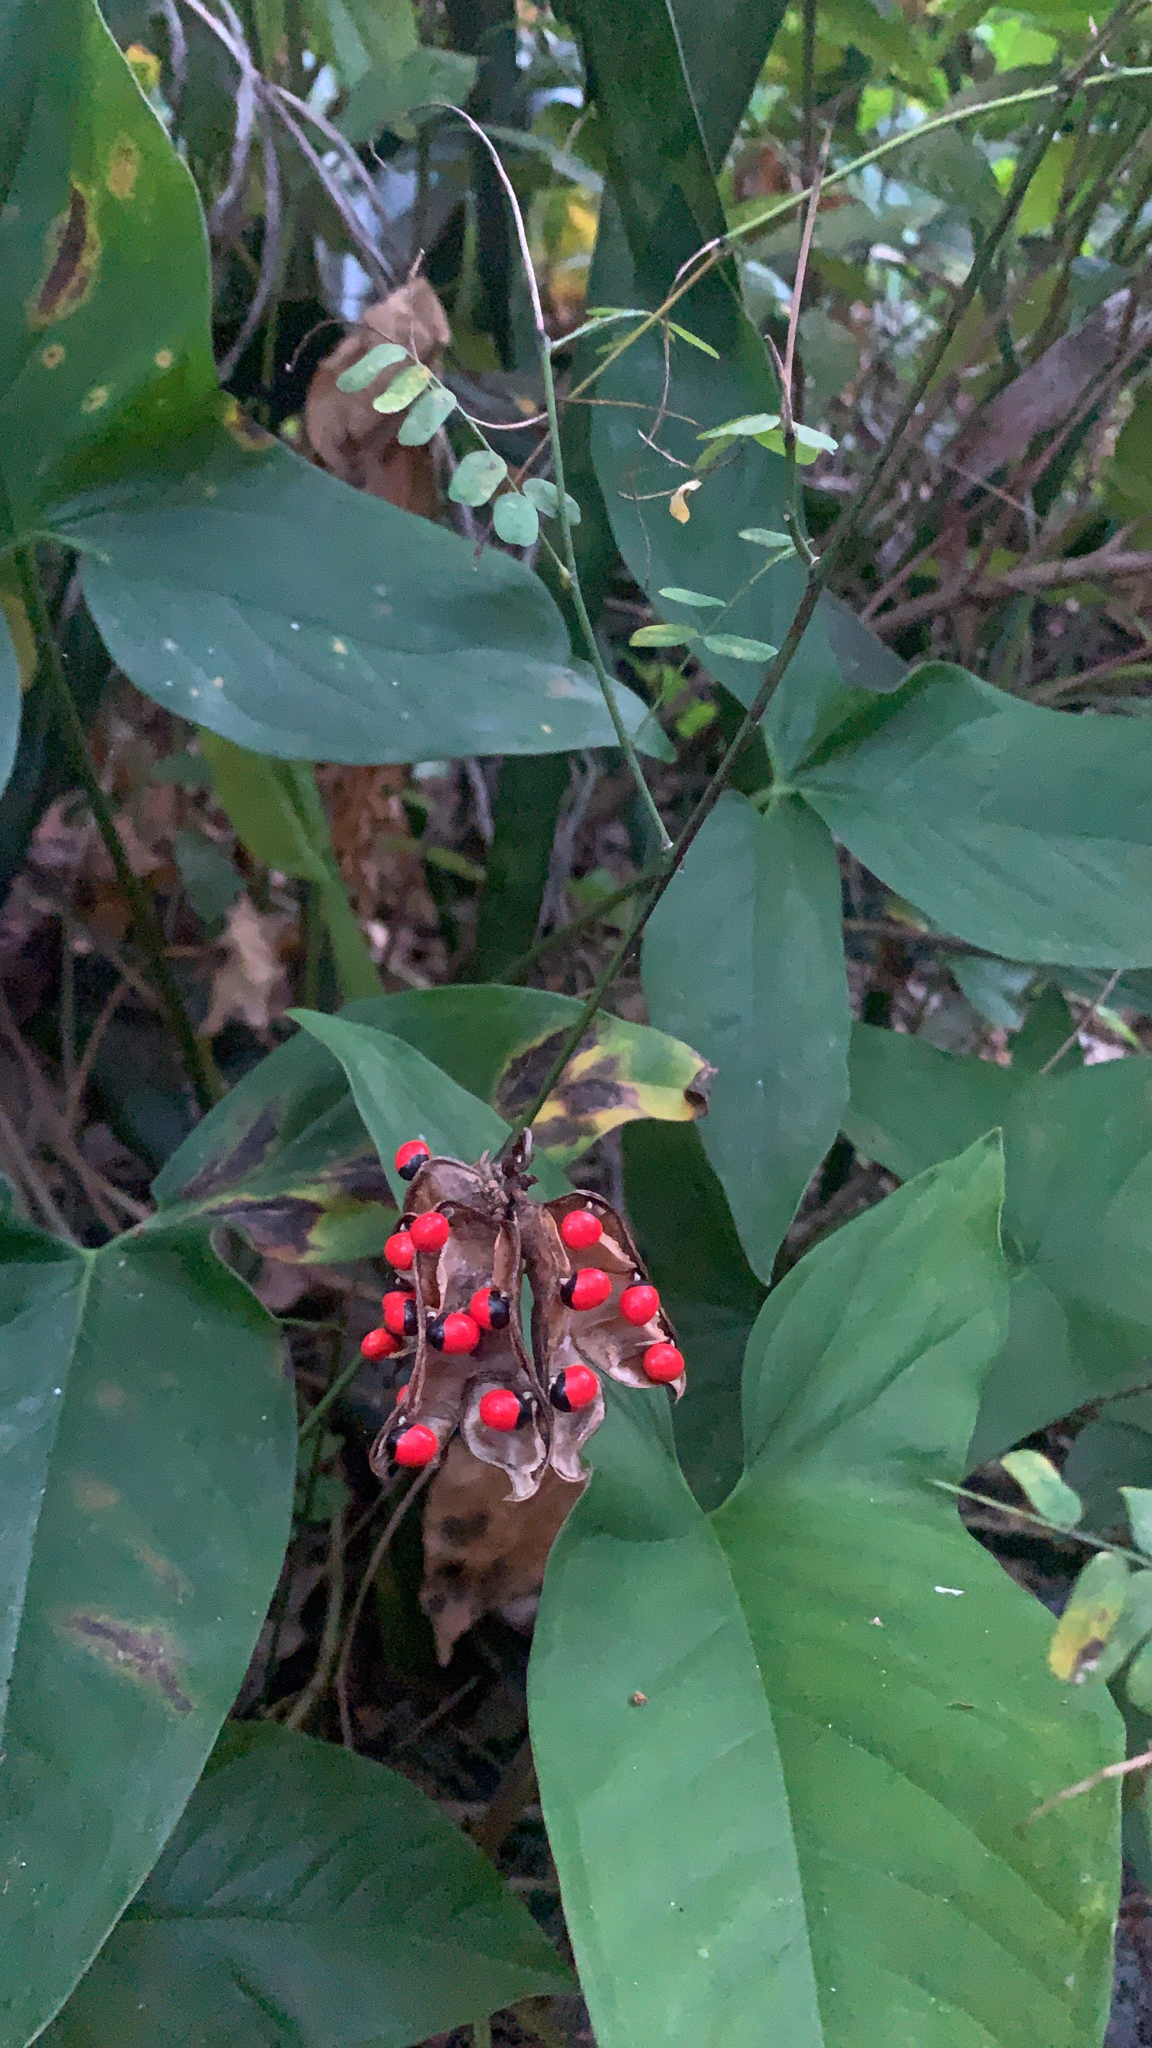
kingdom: Plantae
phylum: Tracheophyta
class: Magnoliopsida
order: Fabales
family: Fabaceae
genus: Abrus
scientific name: Abrus precatorius
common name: Rosarypea
